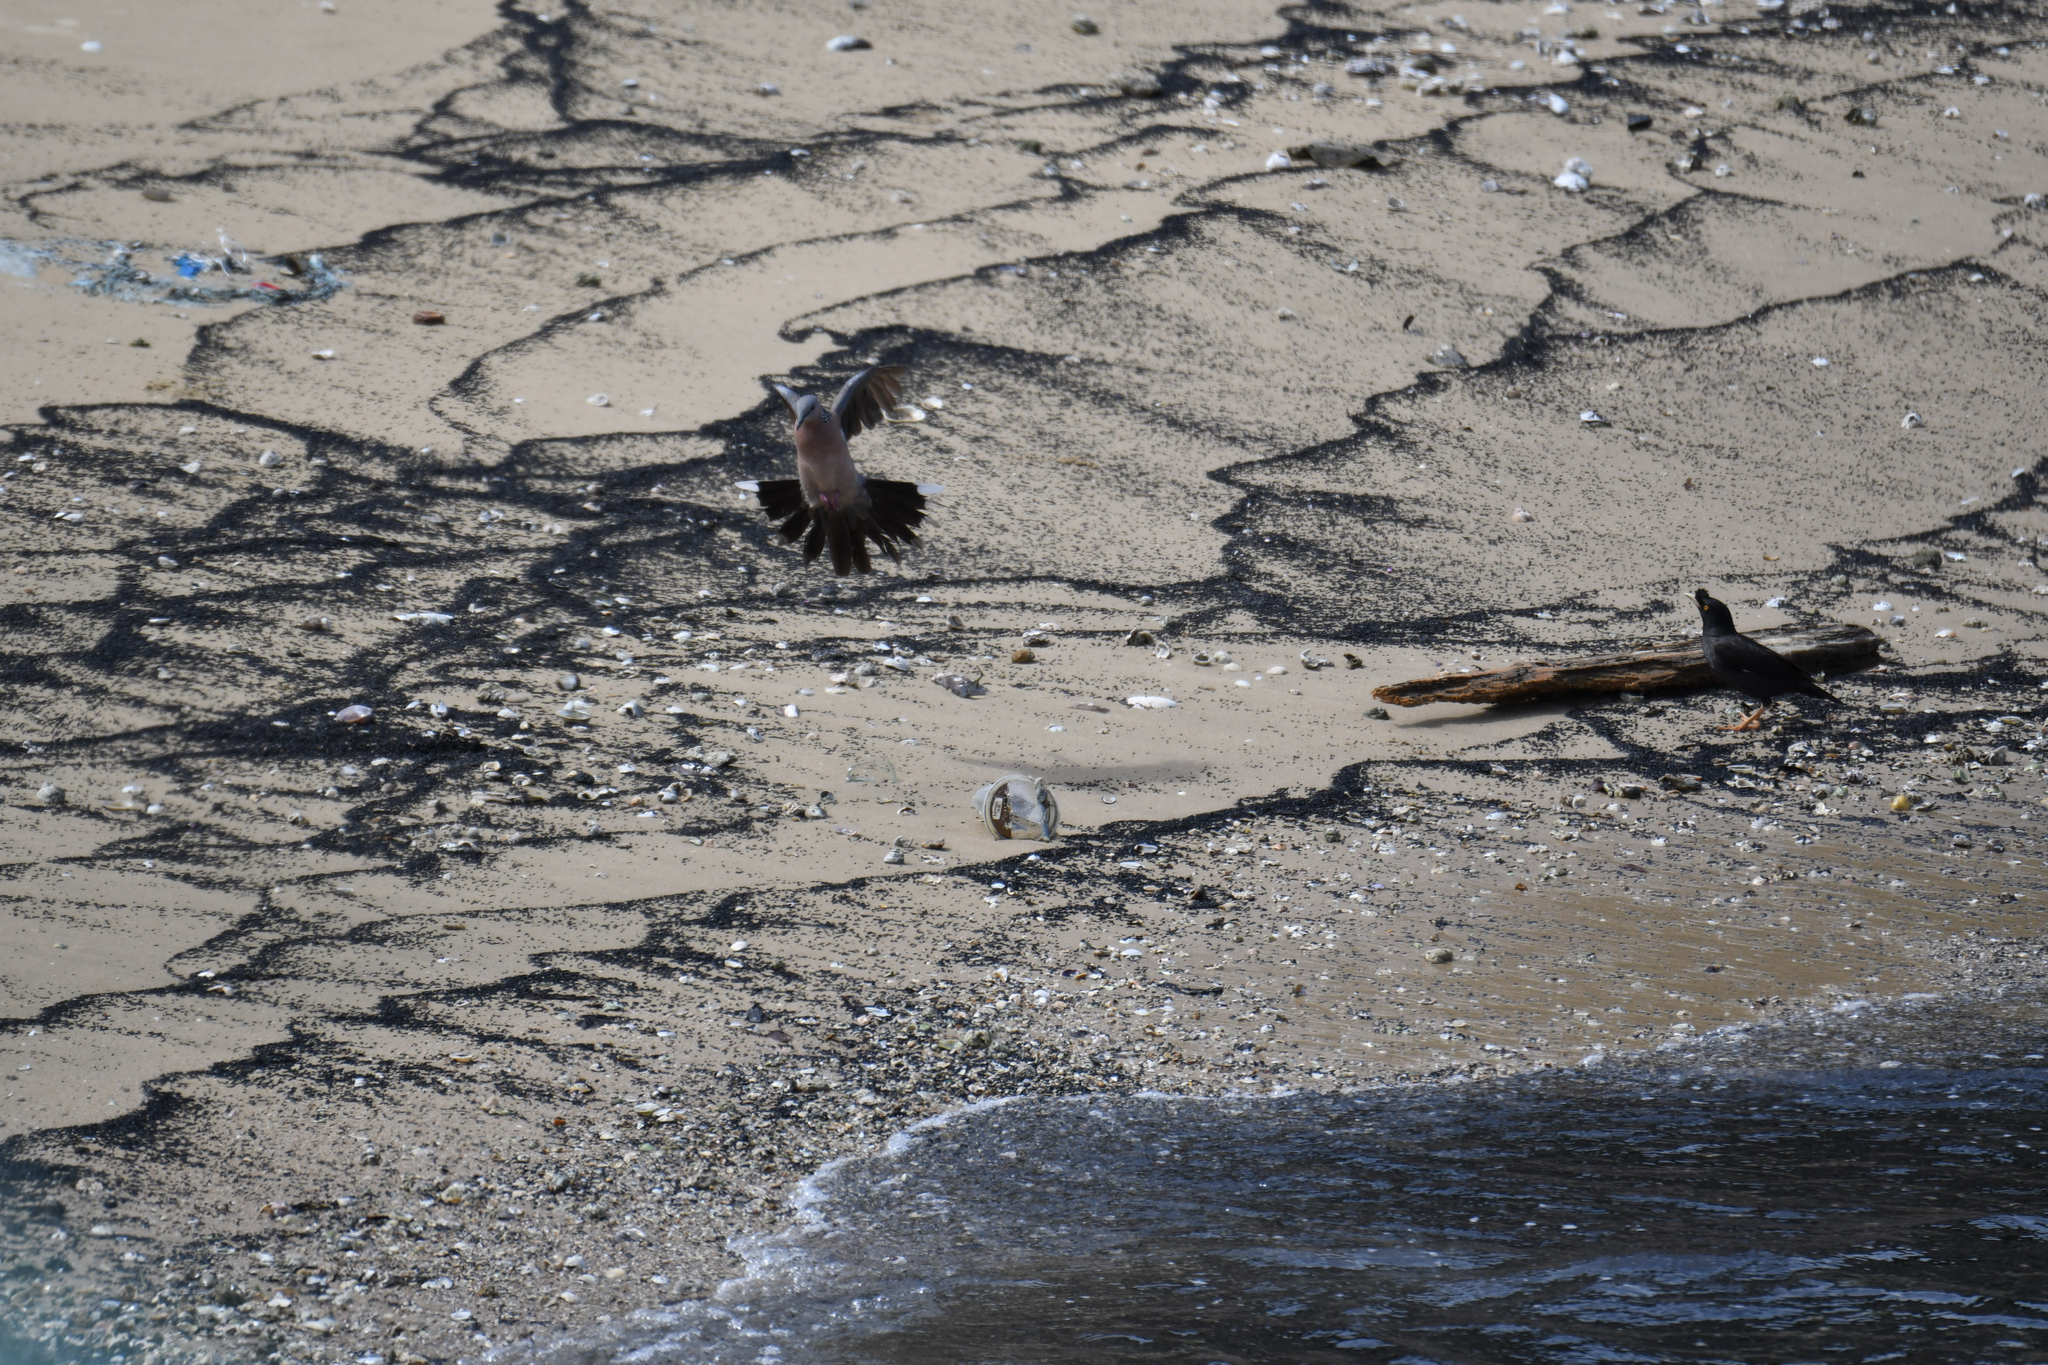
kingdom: Animalia
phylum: Chordata
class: Aves
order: Columbiformes
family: Columbidae
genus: Spilopelia
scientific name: Spilopelia chinensis
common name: Spotted dove
